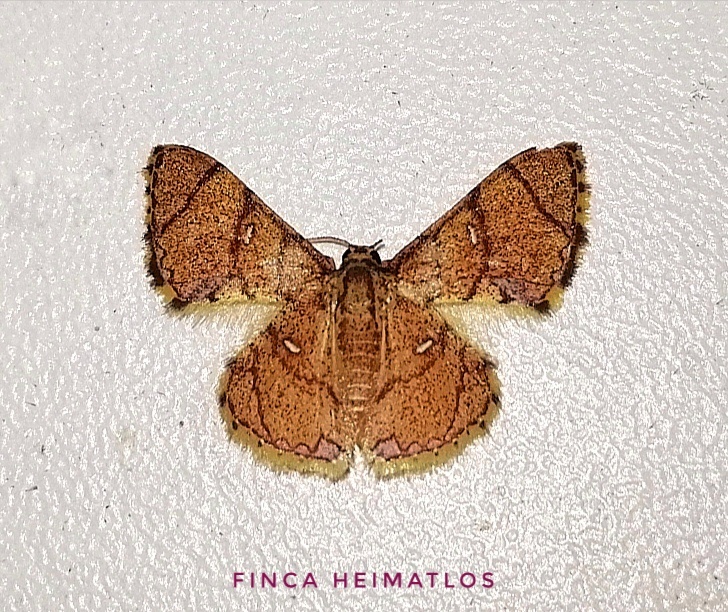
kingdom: Animalia
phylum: Arthropoda
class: Insecta
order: Lepidoptera
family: Geometridae
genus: Hemipterodes
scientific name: Hemipterodes subrotundata
